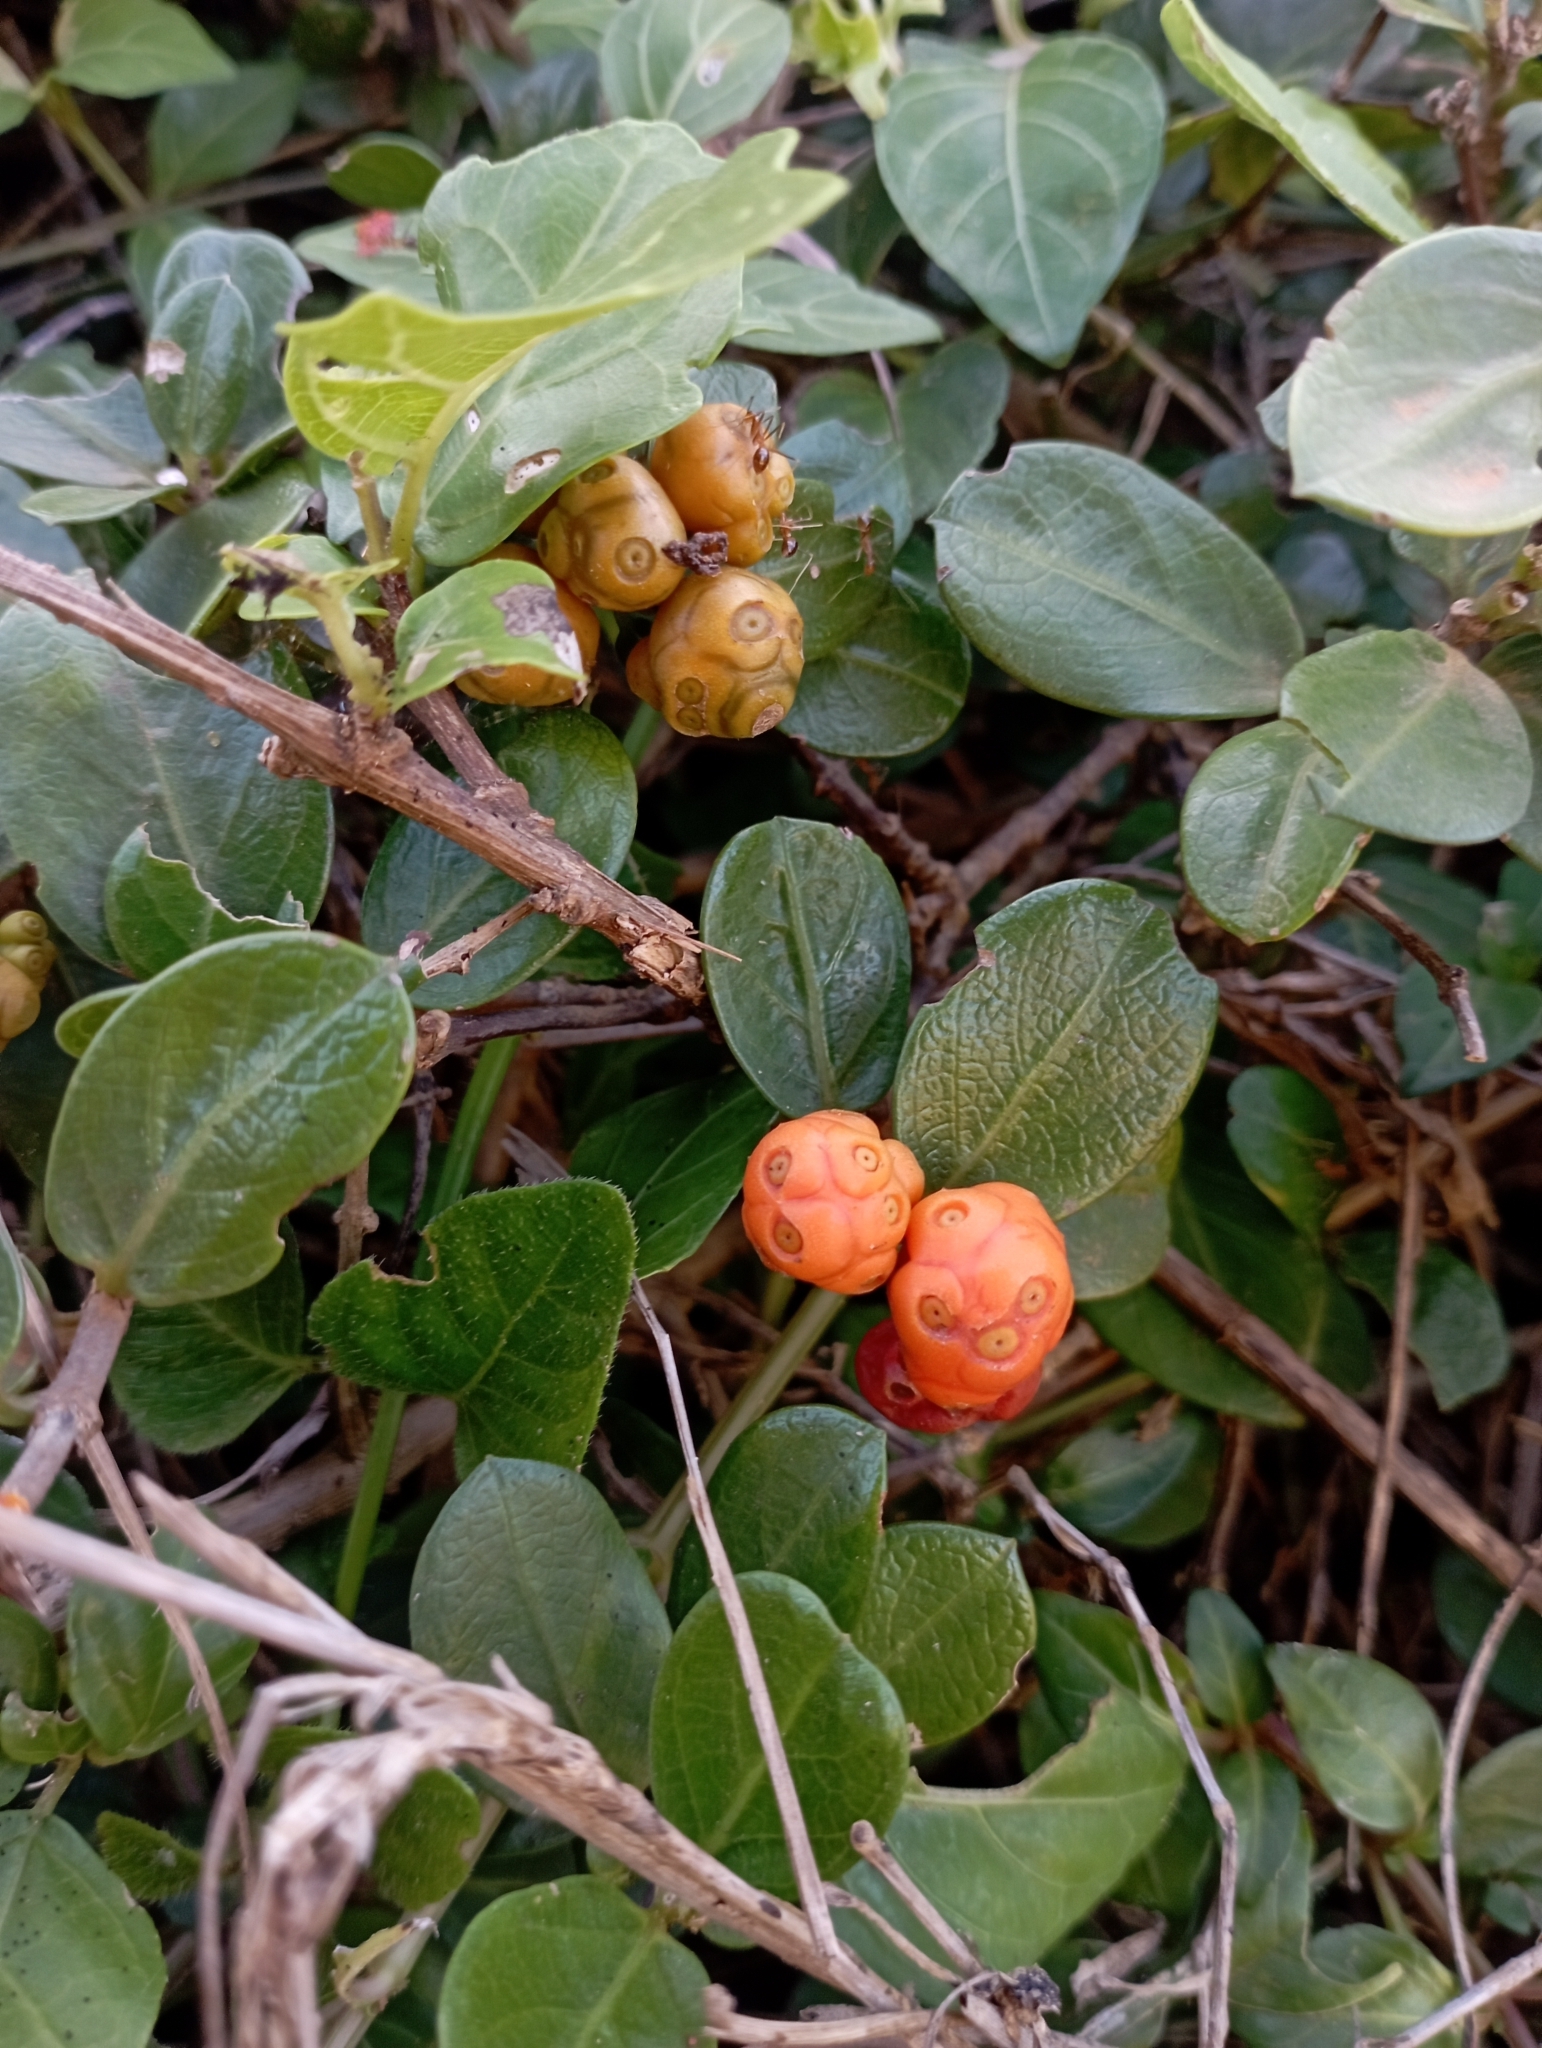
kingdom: Plantae
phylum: Tracheophyta
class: Magnoliopsida
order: Gentianales
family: Rubiaceae
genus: Gynochthodes
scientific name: Gynochthodes parvifolia
